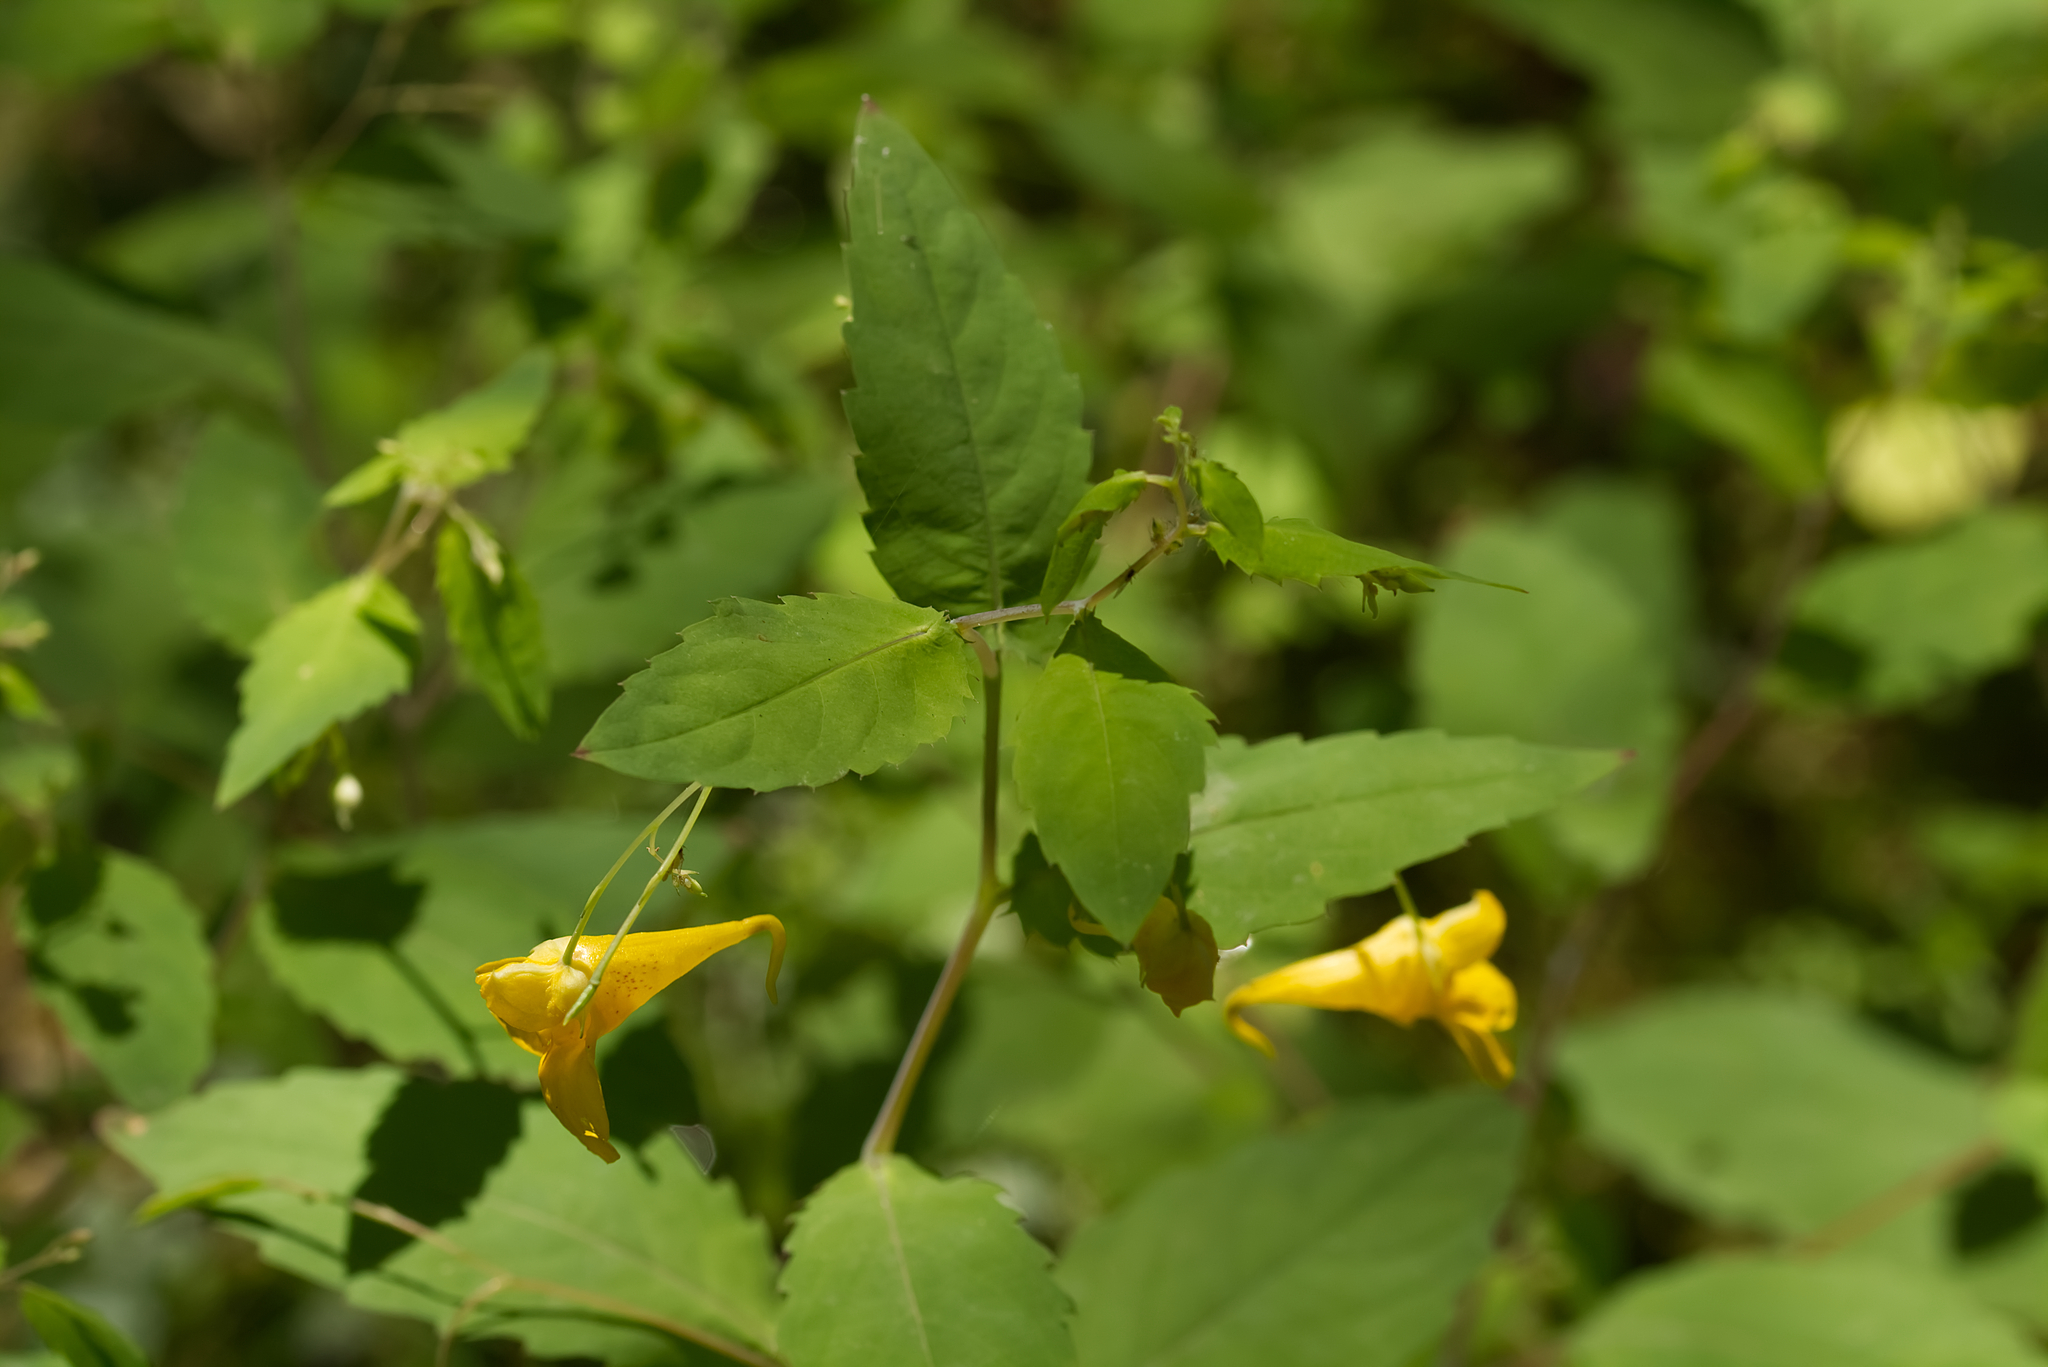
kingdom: Plantae
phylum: Tracheophyta
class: Magnoliopsida
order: Ericales
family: Balsaminaceae
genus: Impatiens
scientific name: Impatiens noli-tangere
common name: Touch-me-not balsam
